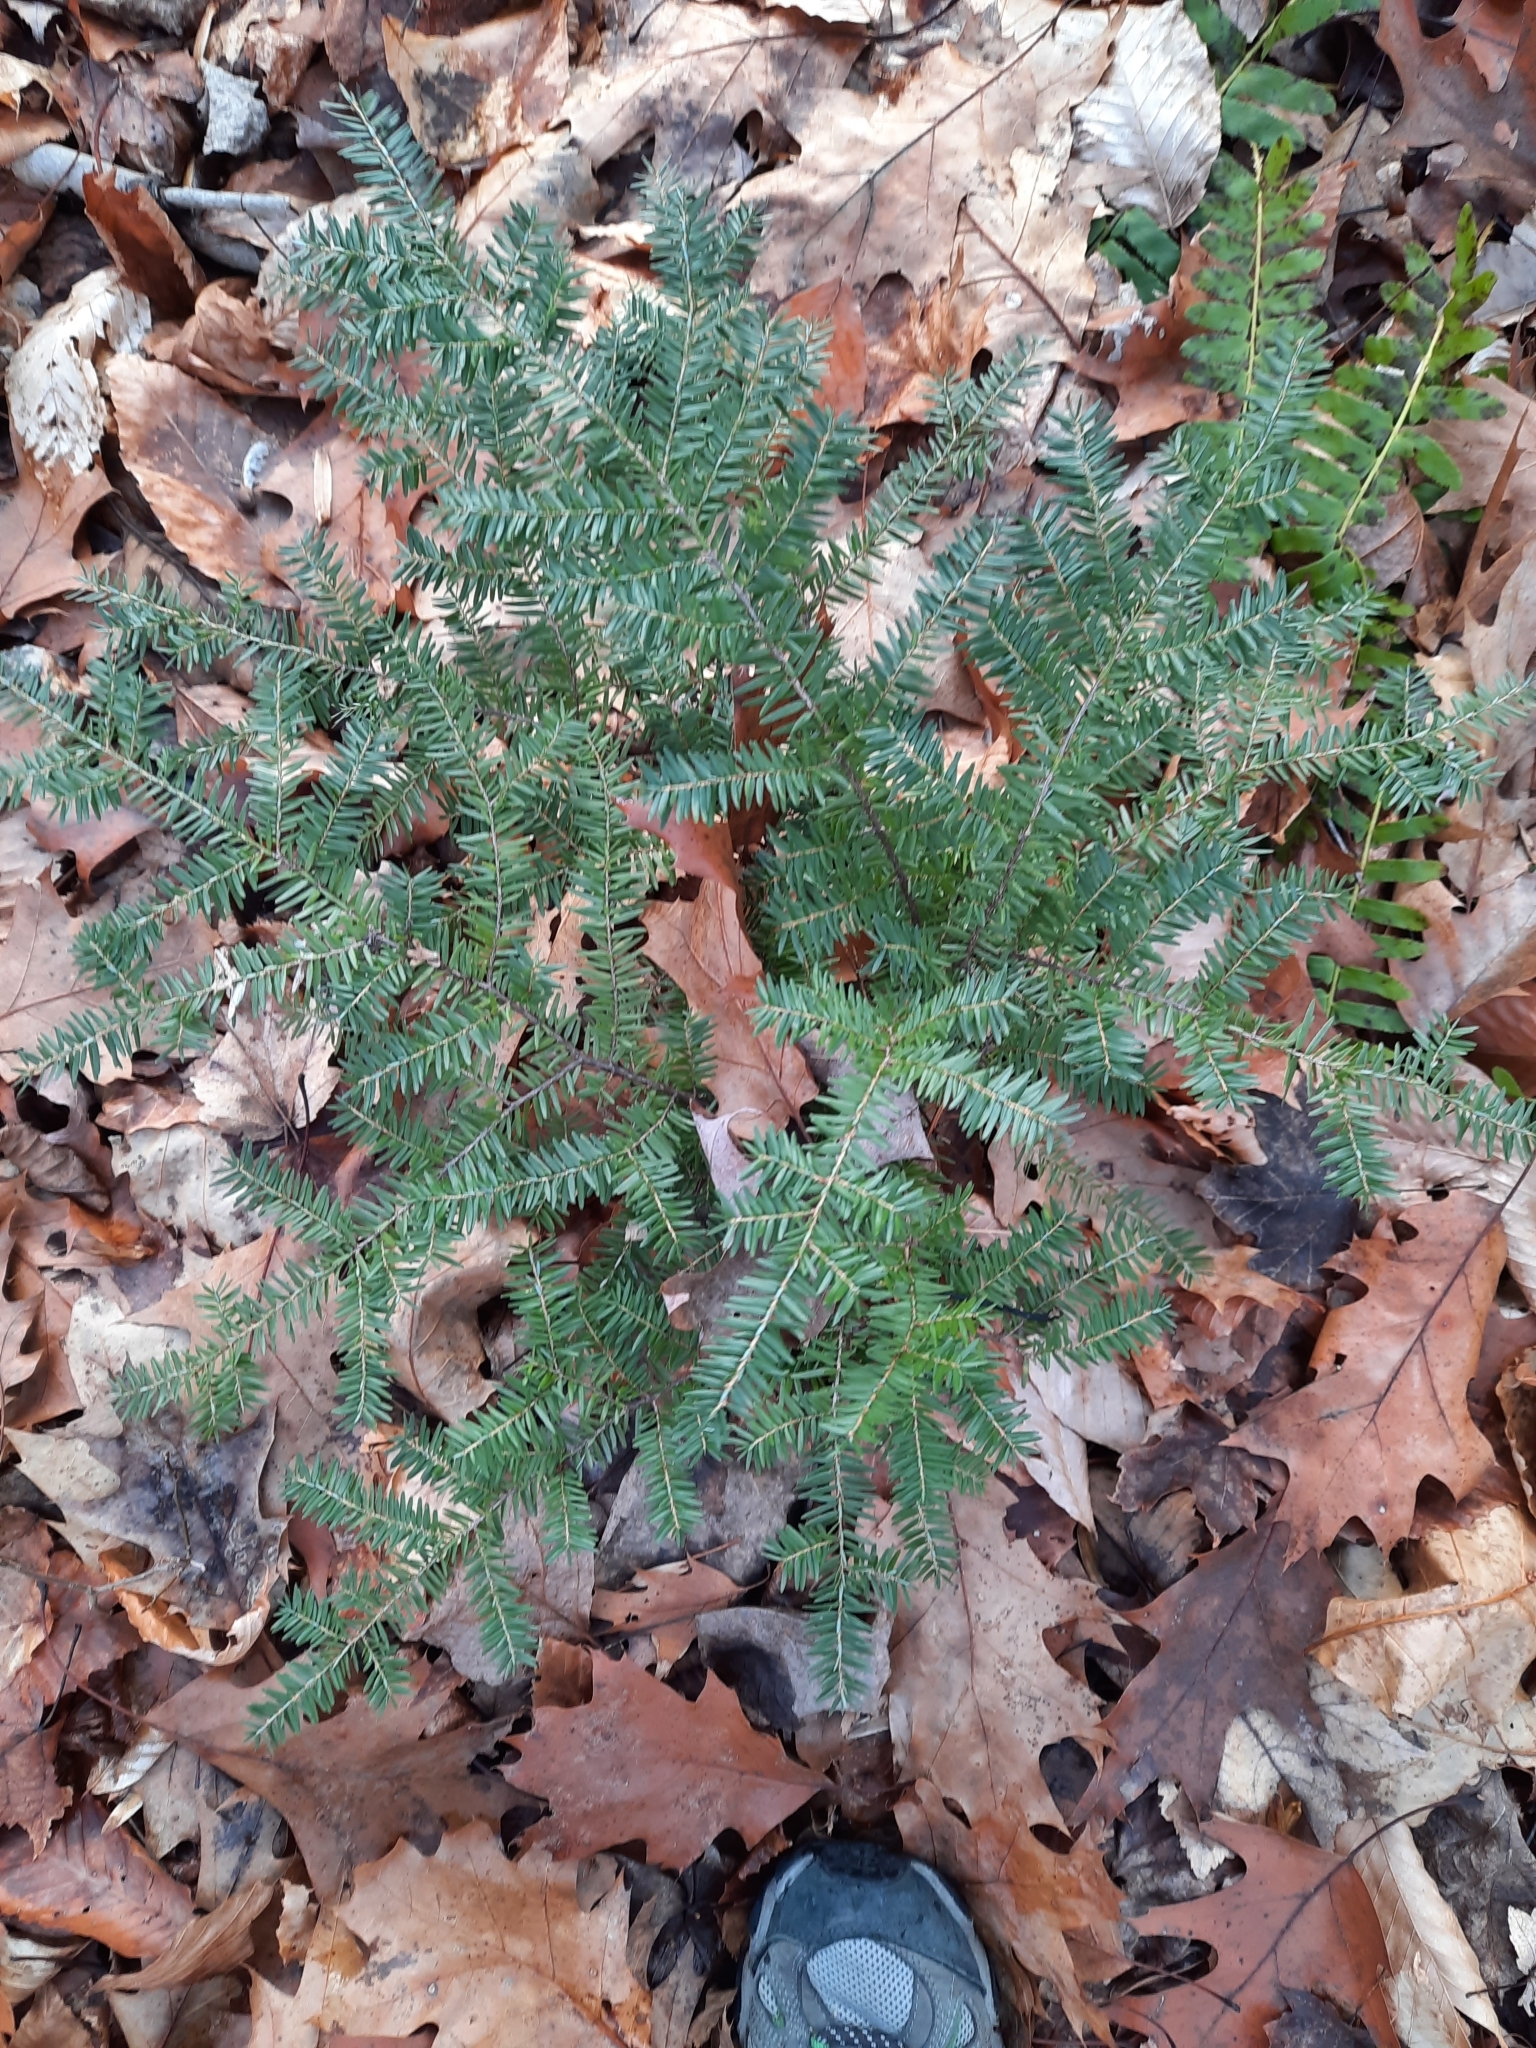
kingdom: Plantae
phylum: Tracheophyta
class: Pinopsida
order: Pinales
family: Pinaceae
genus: Tsuga
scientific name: Tsuga canadensis
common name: Eastern hemlock
